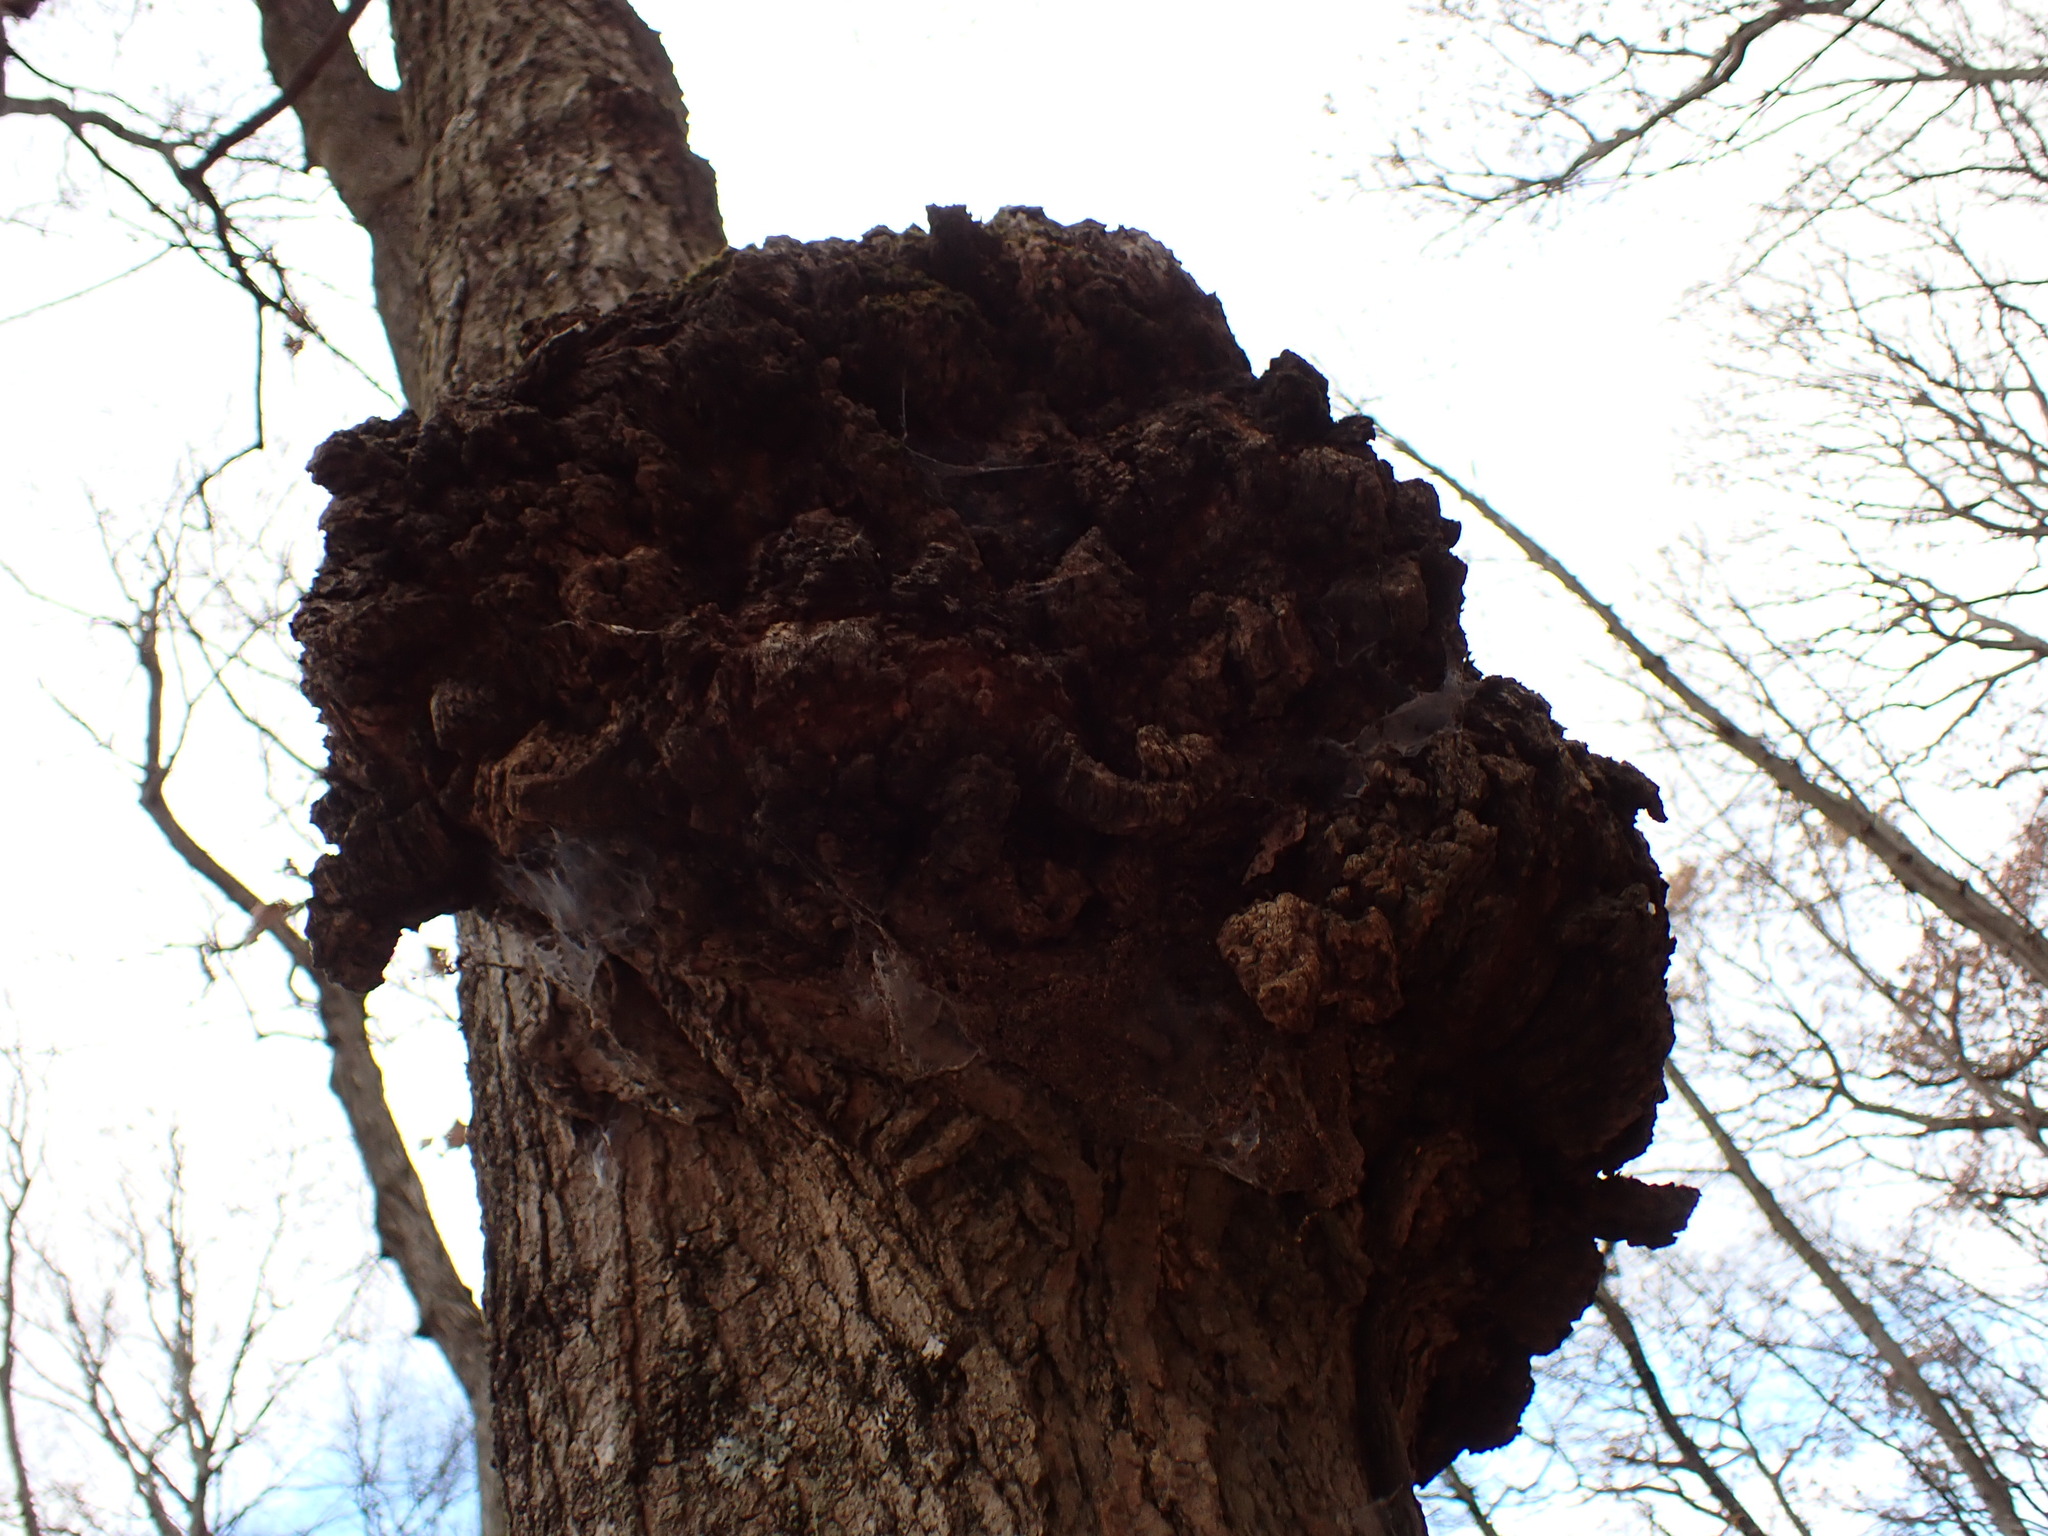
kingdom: Bacteria
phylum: Proteobacteria
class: Alphaproteobacteria
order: Rhizobiales
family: Rhizobiaceae
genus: Rhizobium
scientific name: Rhizobium Agrobacterium radiobacter
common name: Bacterial crown gall
